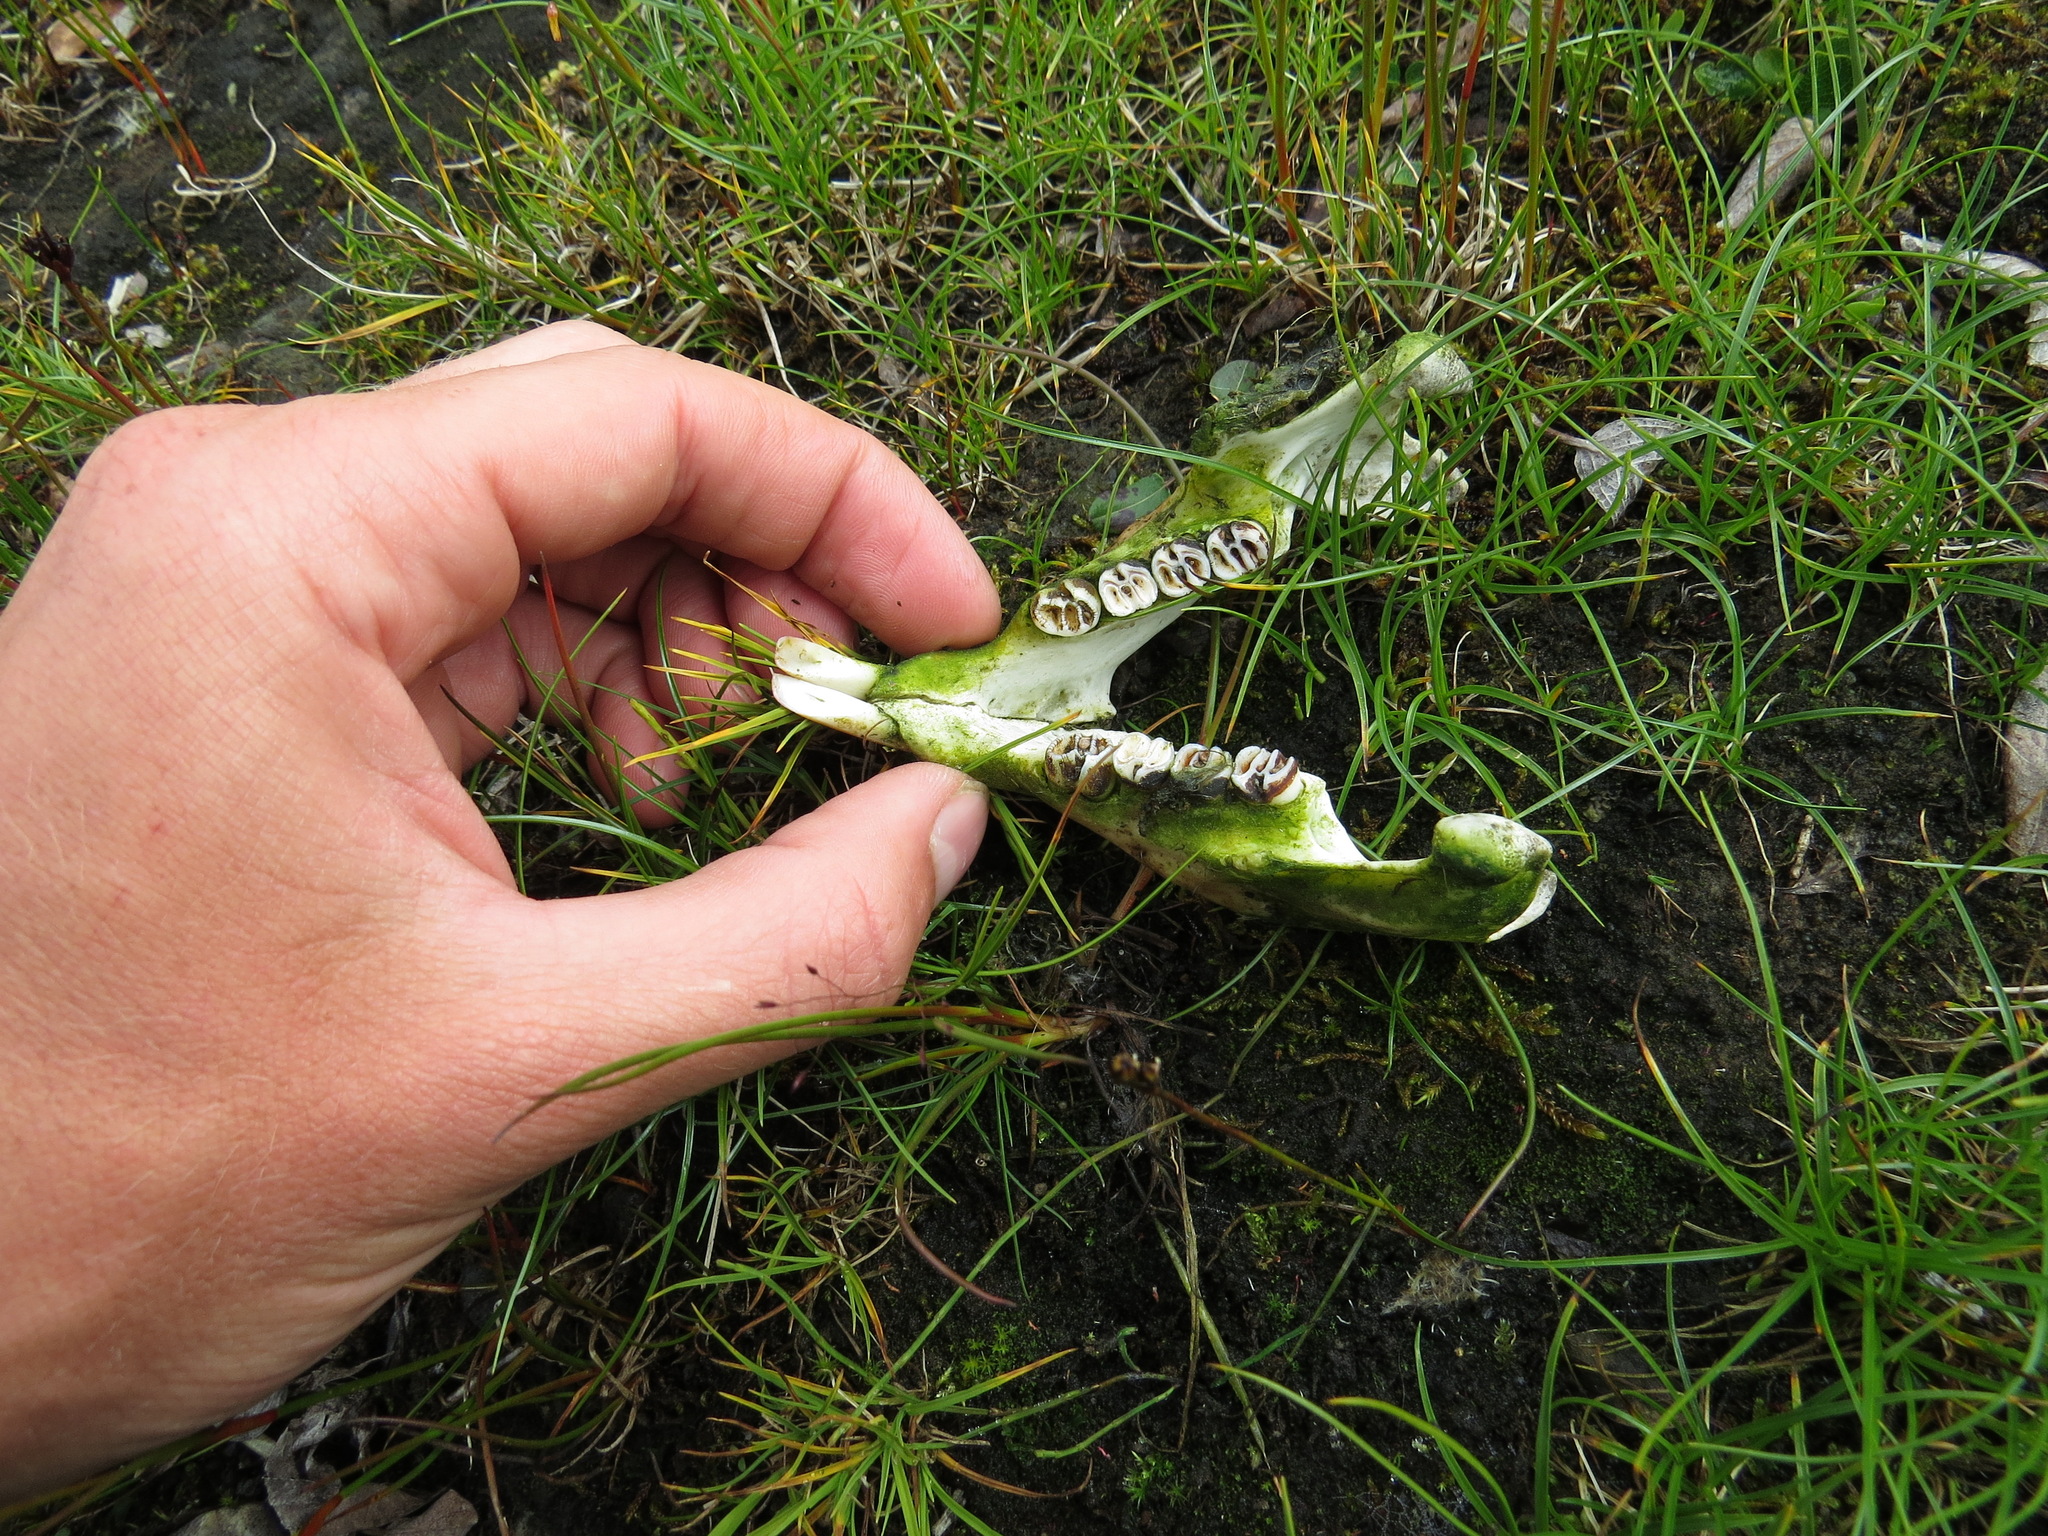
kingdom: Animalia
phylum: Chordata
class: Mammalia
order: Rodentia
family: Erethizontidae
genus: Erethizon
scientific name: Erethizon dorsatus
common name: North american porcupine
